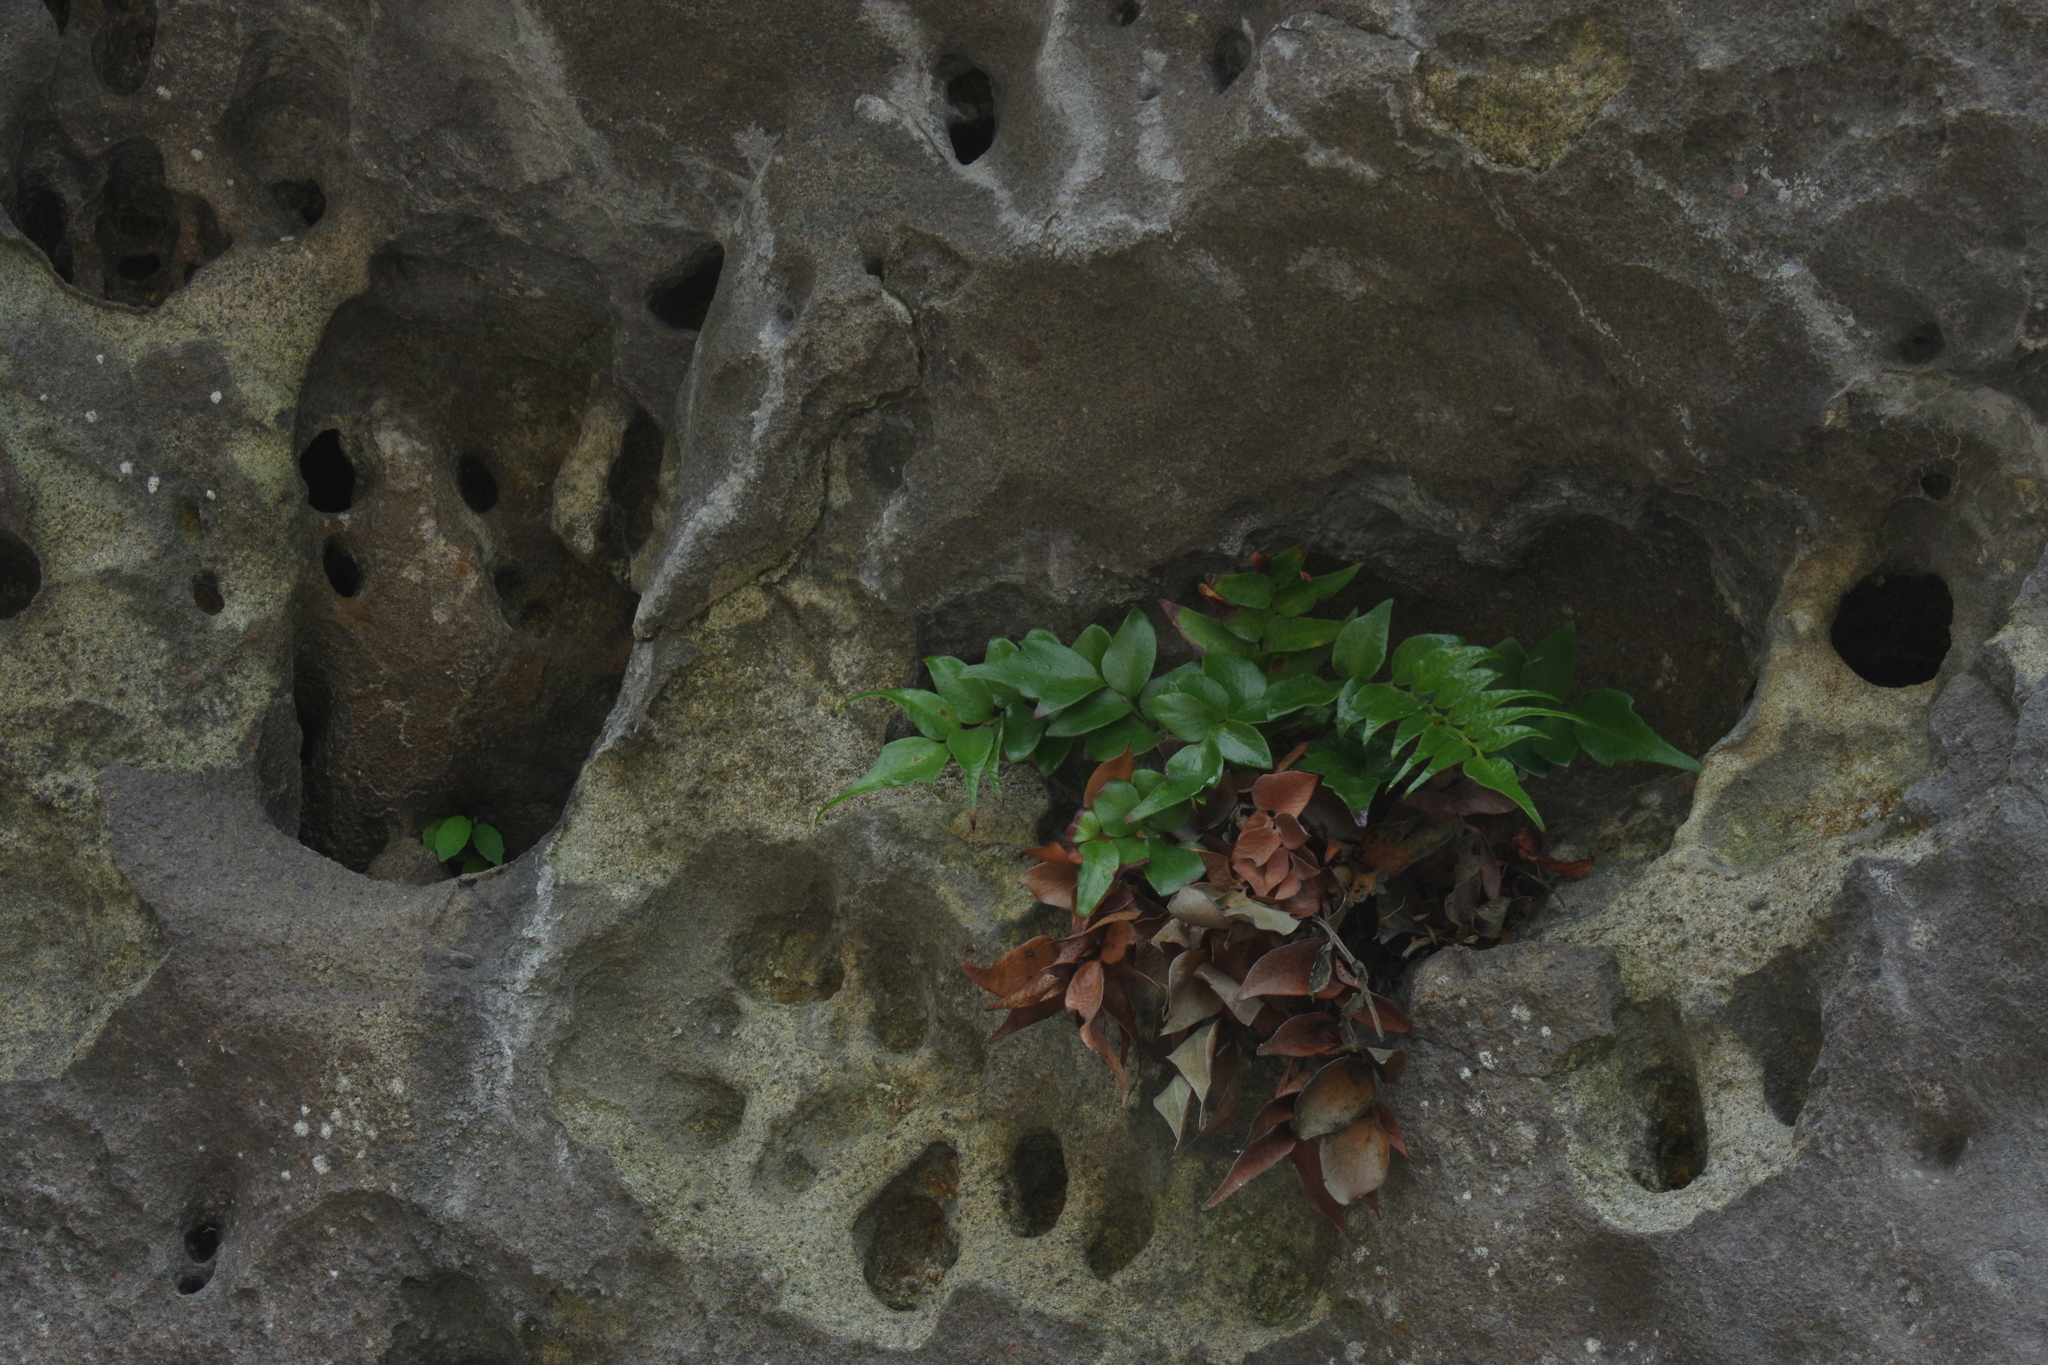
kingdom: Plantae
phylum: Tracheophyta
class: Polypodiopsida
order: Polypodiales
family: Dryopteridaceae
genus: Cyrtomium
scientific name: Cyrtomium falcatum
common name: House holly-fern
